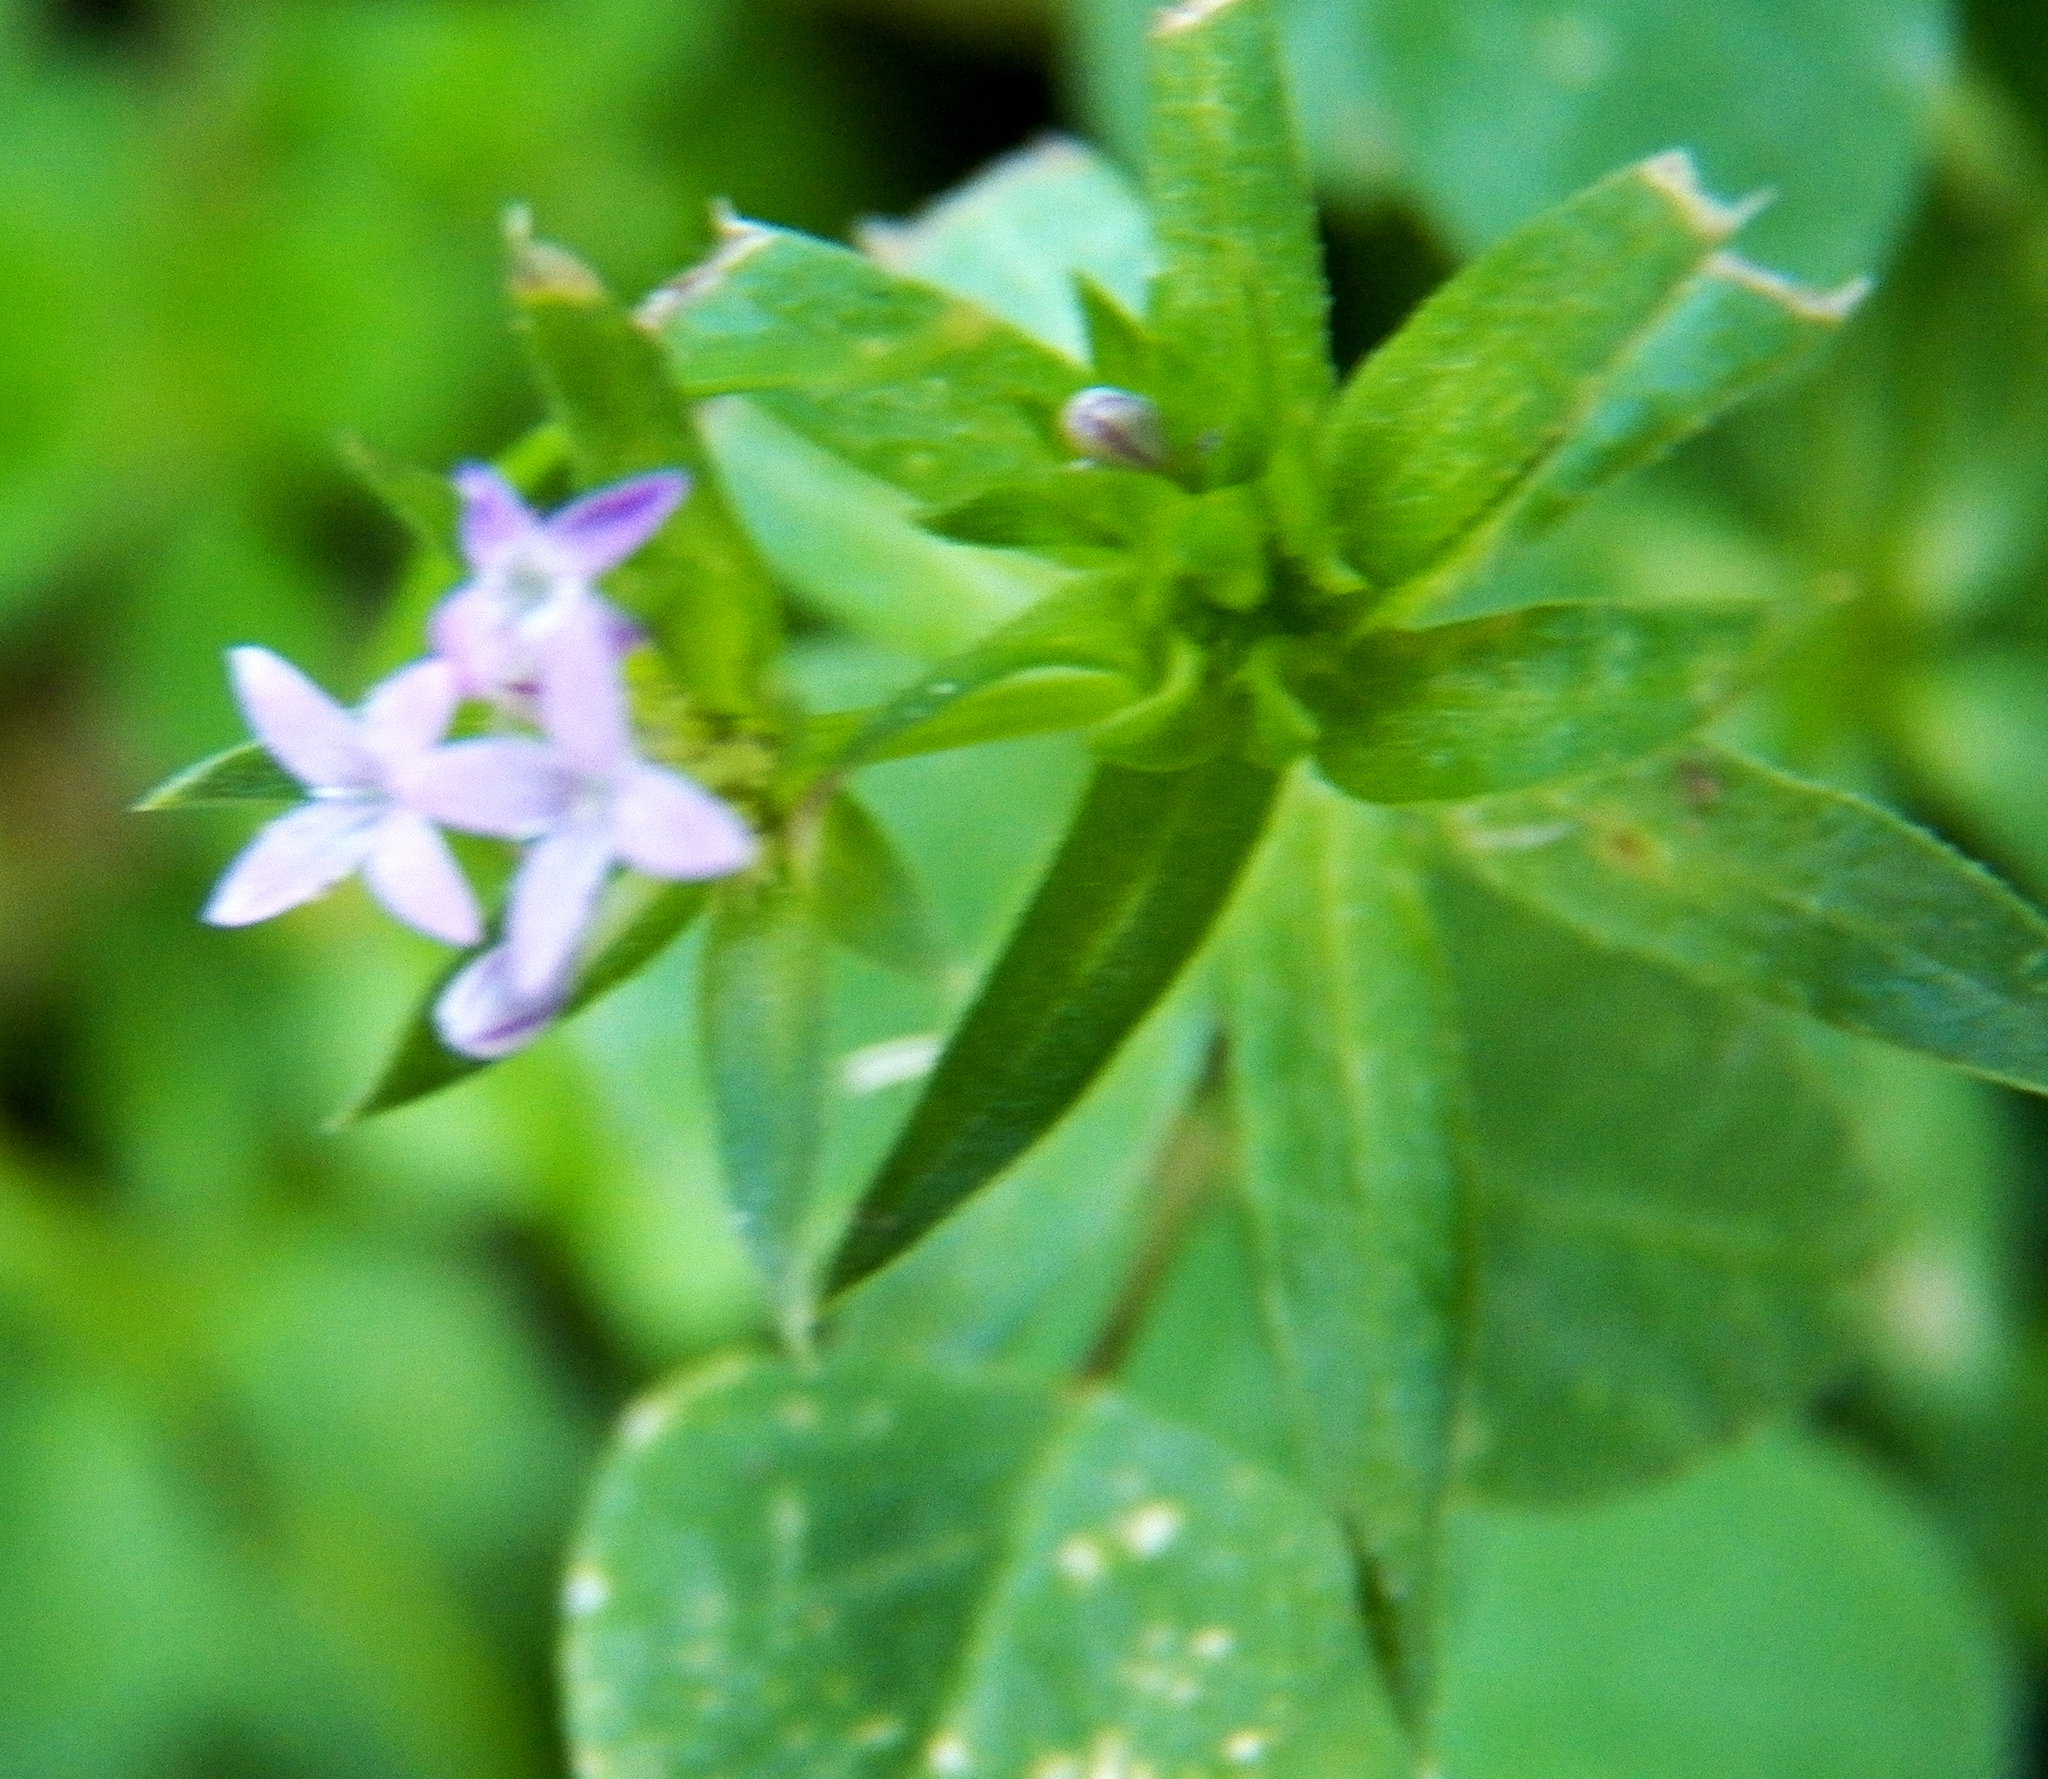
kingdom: Plantae
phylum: Tracheophyta
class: Magnoliopsida
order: Gentianales
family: Rubiaceae
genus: Sherardia
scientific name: Sherardia arvensis
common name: Field madder
